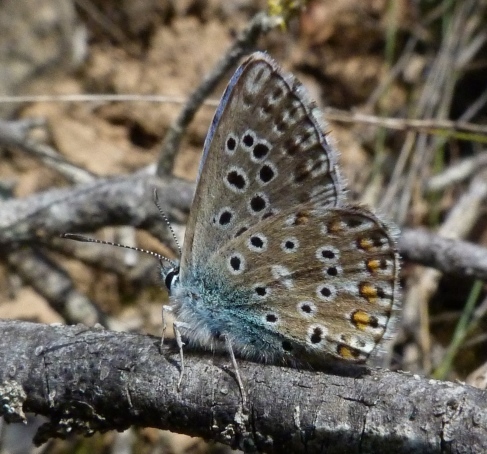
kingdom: Animalia
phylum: Arthropoda
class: Insecta
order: Lepidoptera
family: Lycaenidae
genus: Lysandra
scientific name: Lysandra bellargus
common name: Adonis blue
